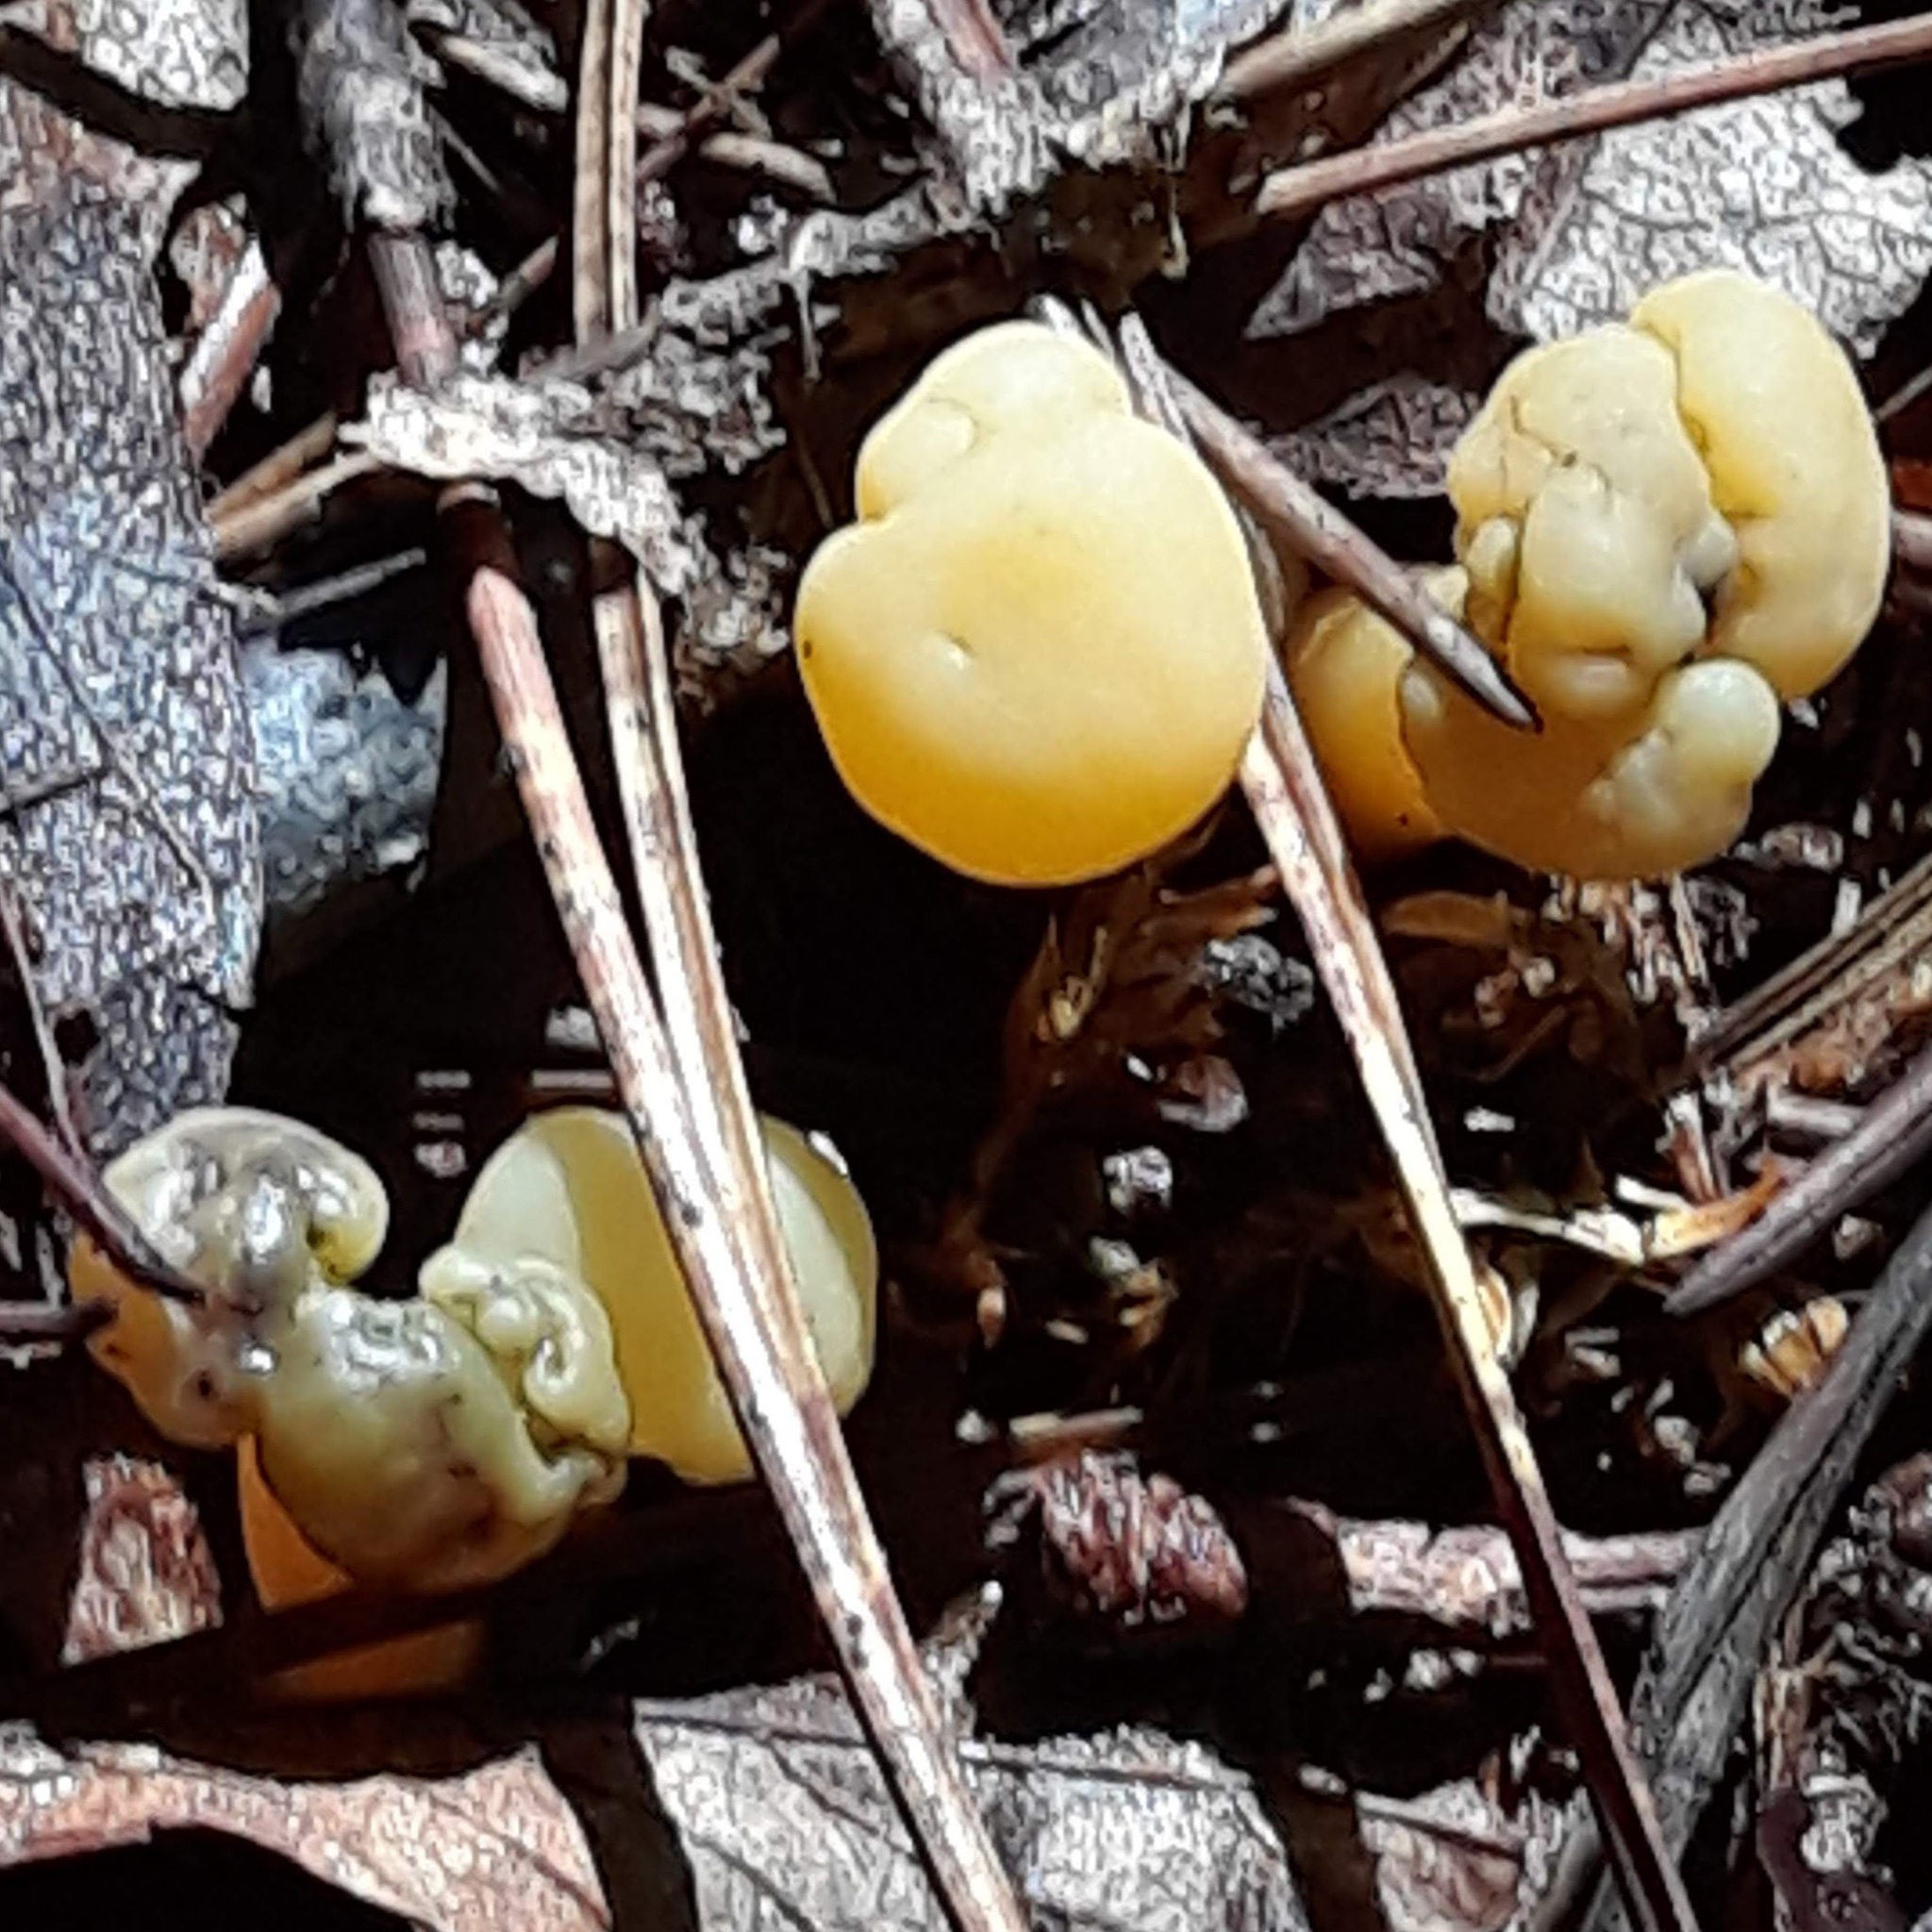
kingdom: Fungi
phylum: Ascomycota
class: Leotiomycetes
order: Leotiales
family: Leotiaceae
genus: Leotia
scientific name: Leotia lubrica
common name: Jellybaby
